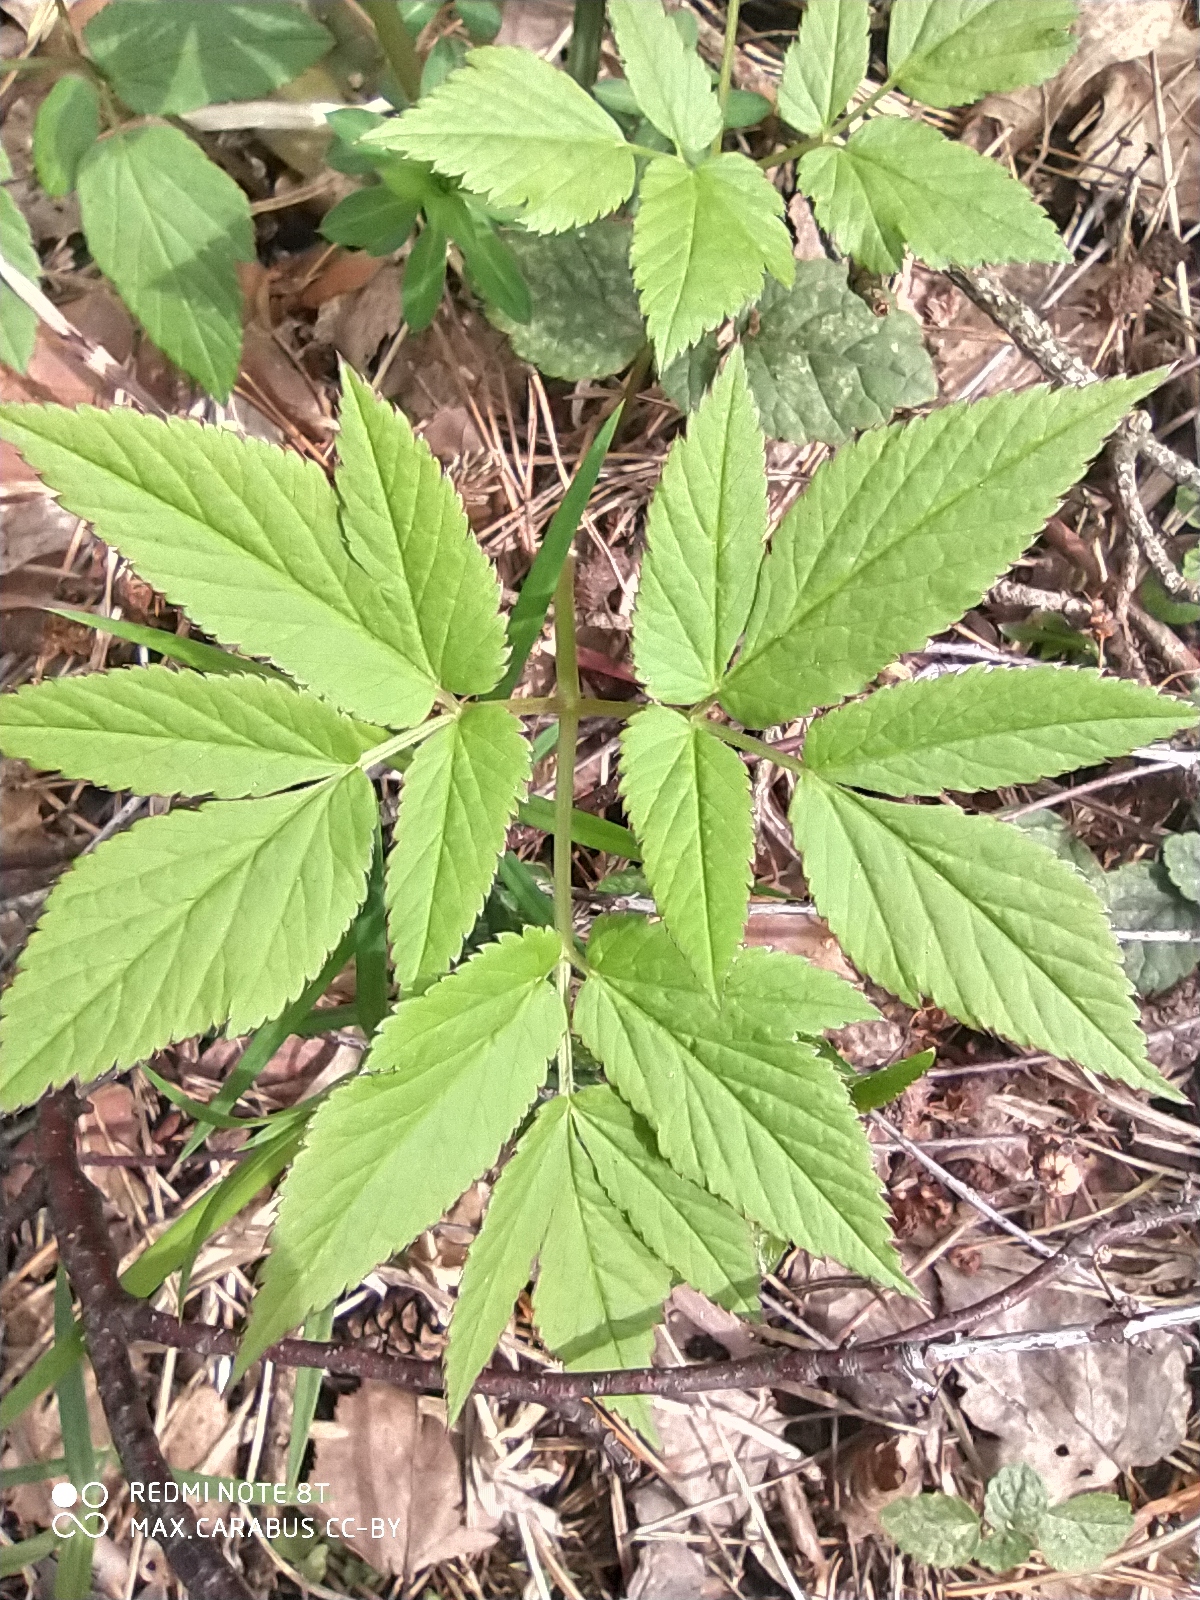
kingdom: Plantae
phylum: Tracheophyta
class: Magnoliopsida
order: Apiales
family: Apiaceae
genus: Aegopodium
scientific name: Aegopodium podagraria
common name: Ground-elder
